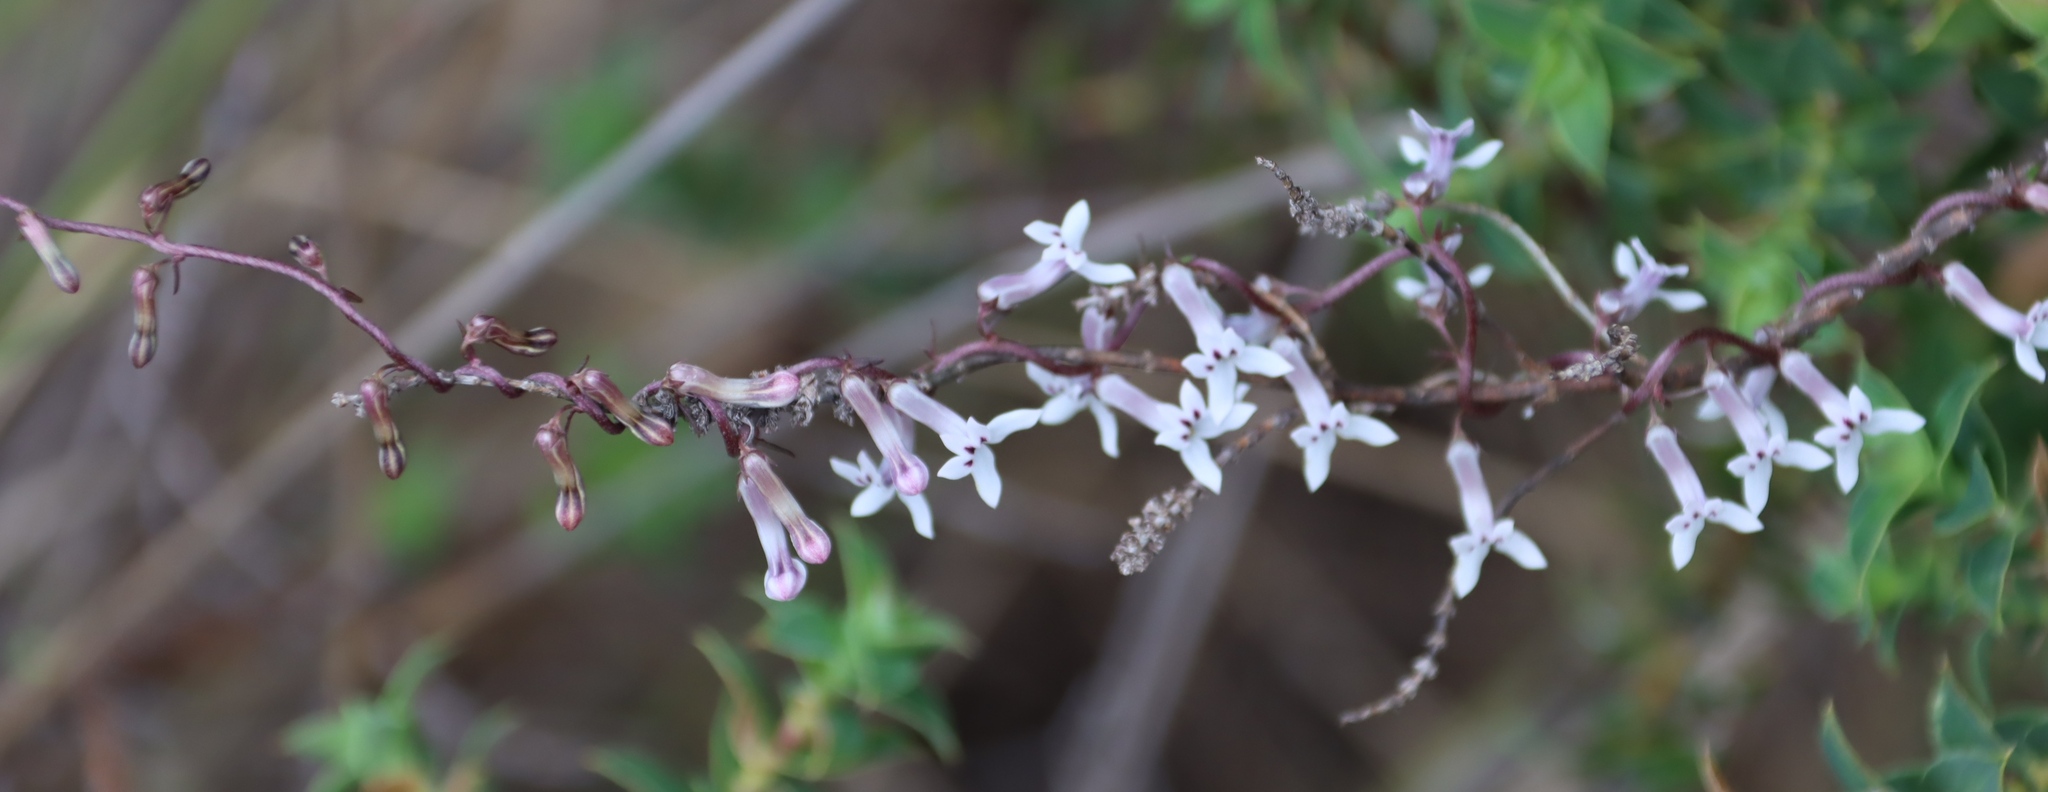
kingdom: Plantae
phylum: Tracheophyta
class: Magnoliopsida
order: Asterales
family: Campanulaceae
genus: Cyphia
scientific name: Cyphia sylvatica
